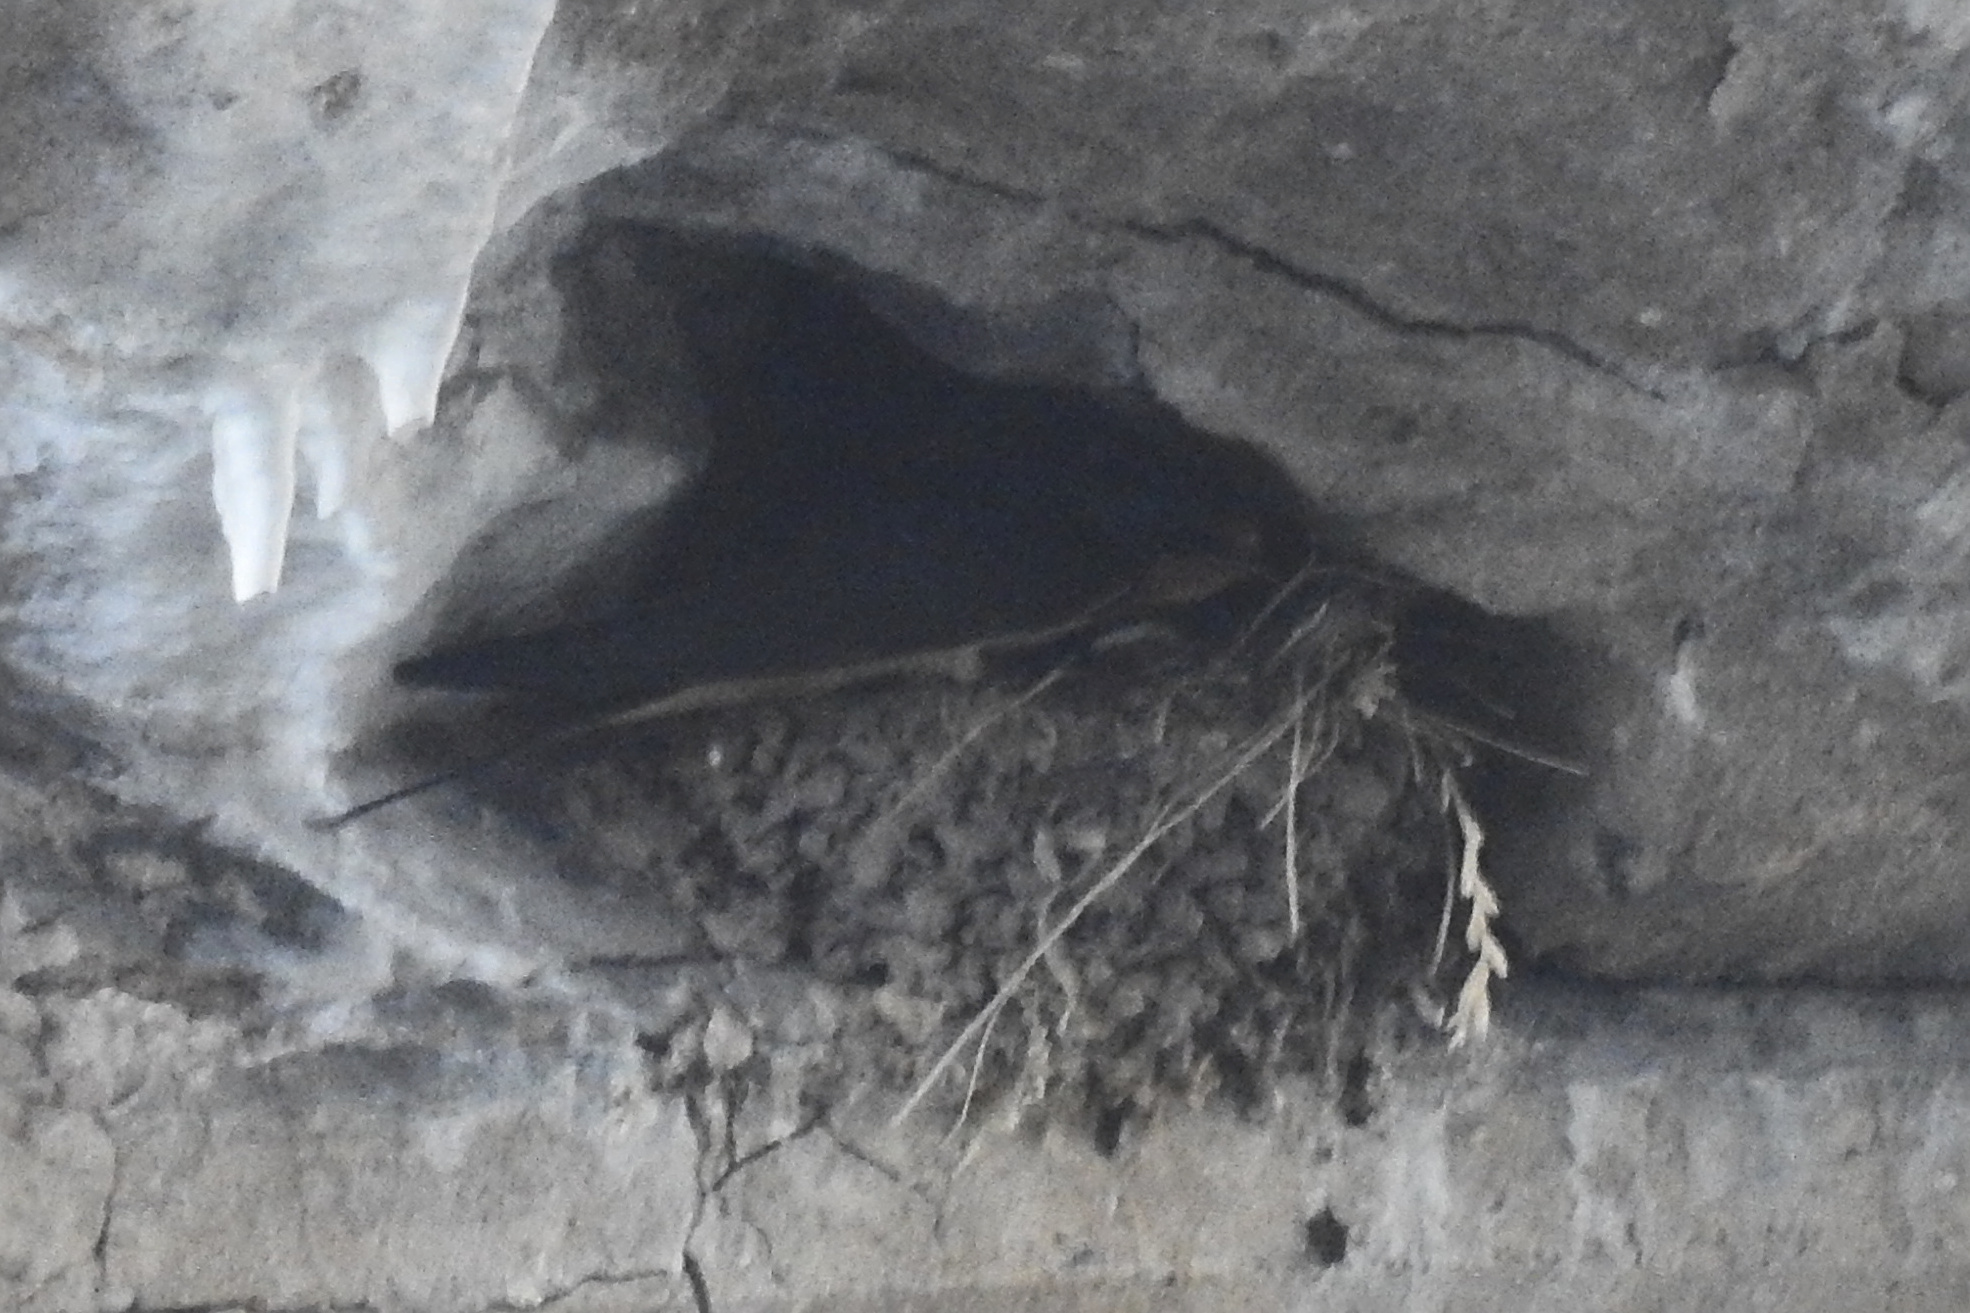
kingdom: Animalia
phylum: Chordata
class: Aves
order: Passeriformes
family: Hirundinidae
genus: Hirundo
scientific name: Hirundo rustica
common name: Barn swallow
